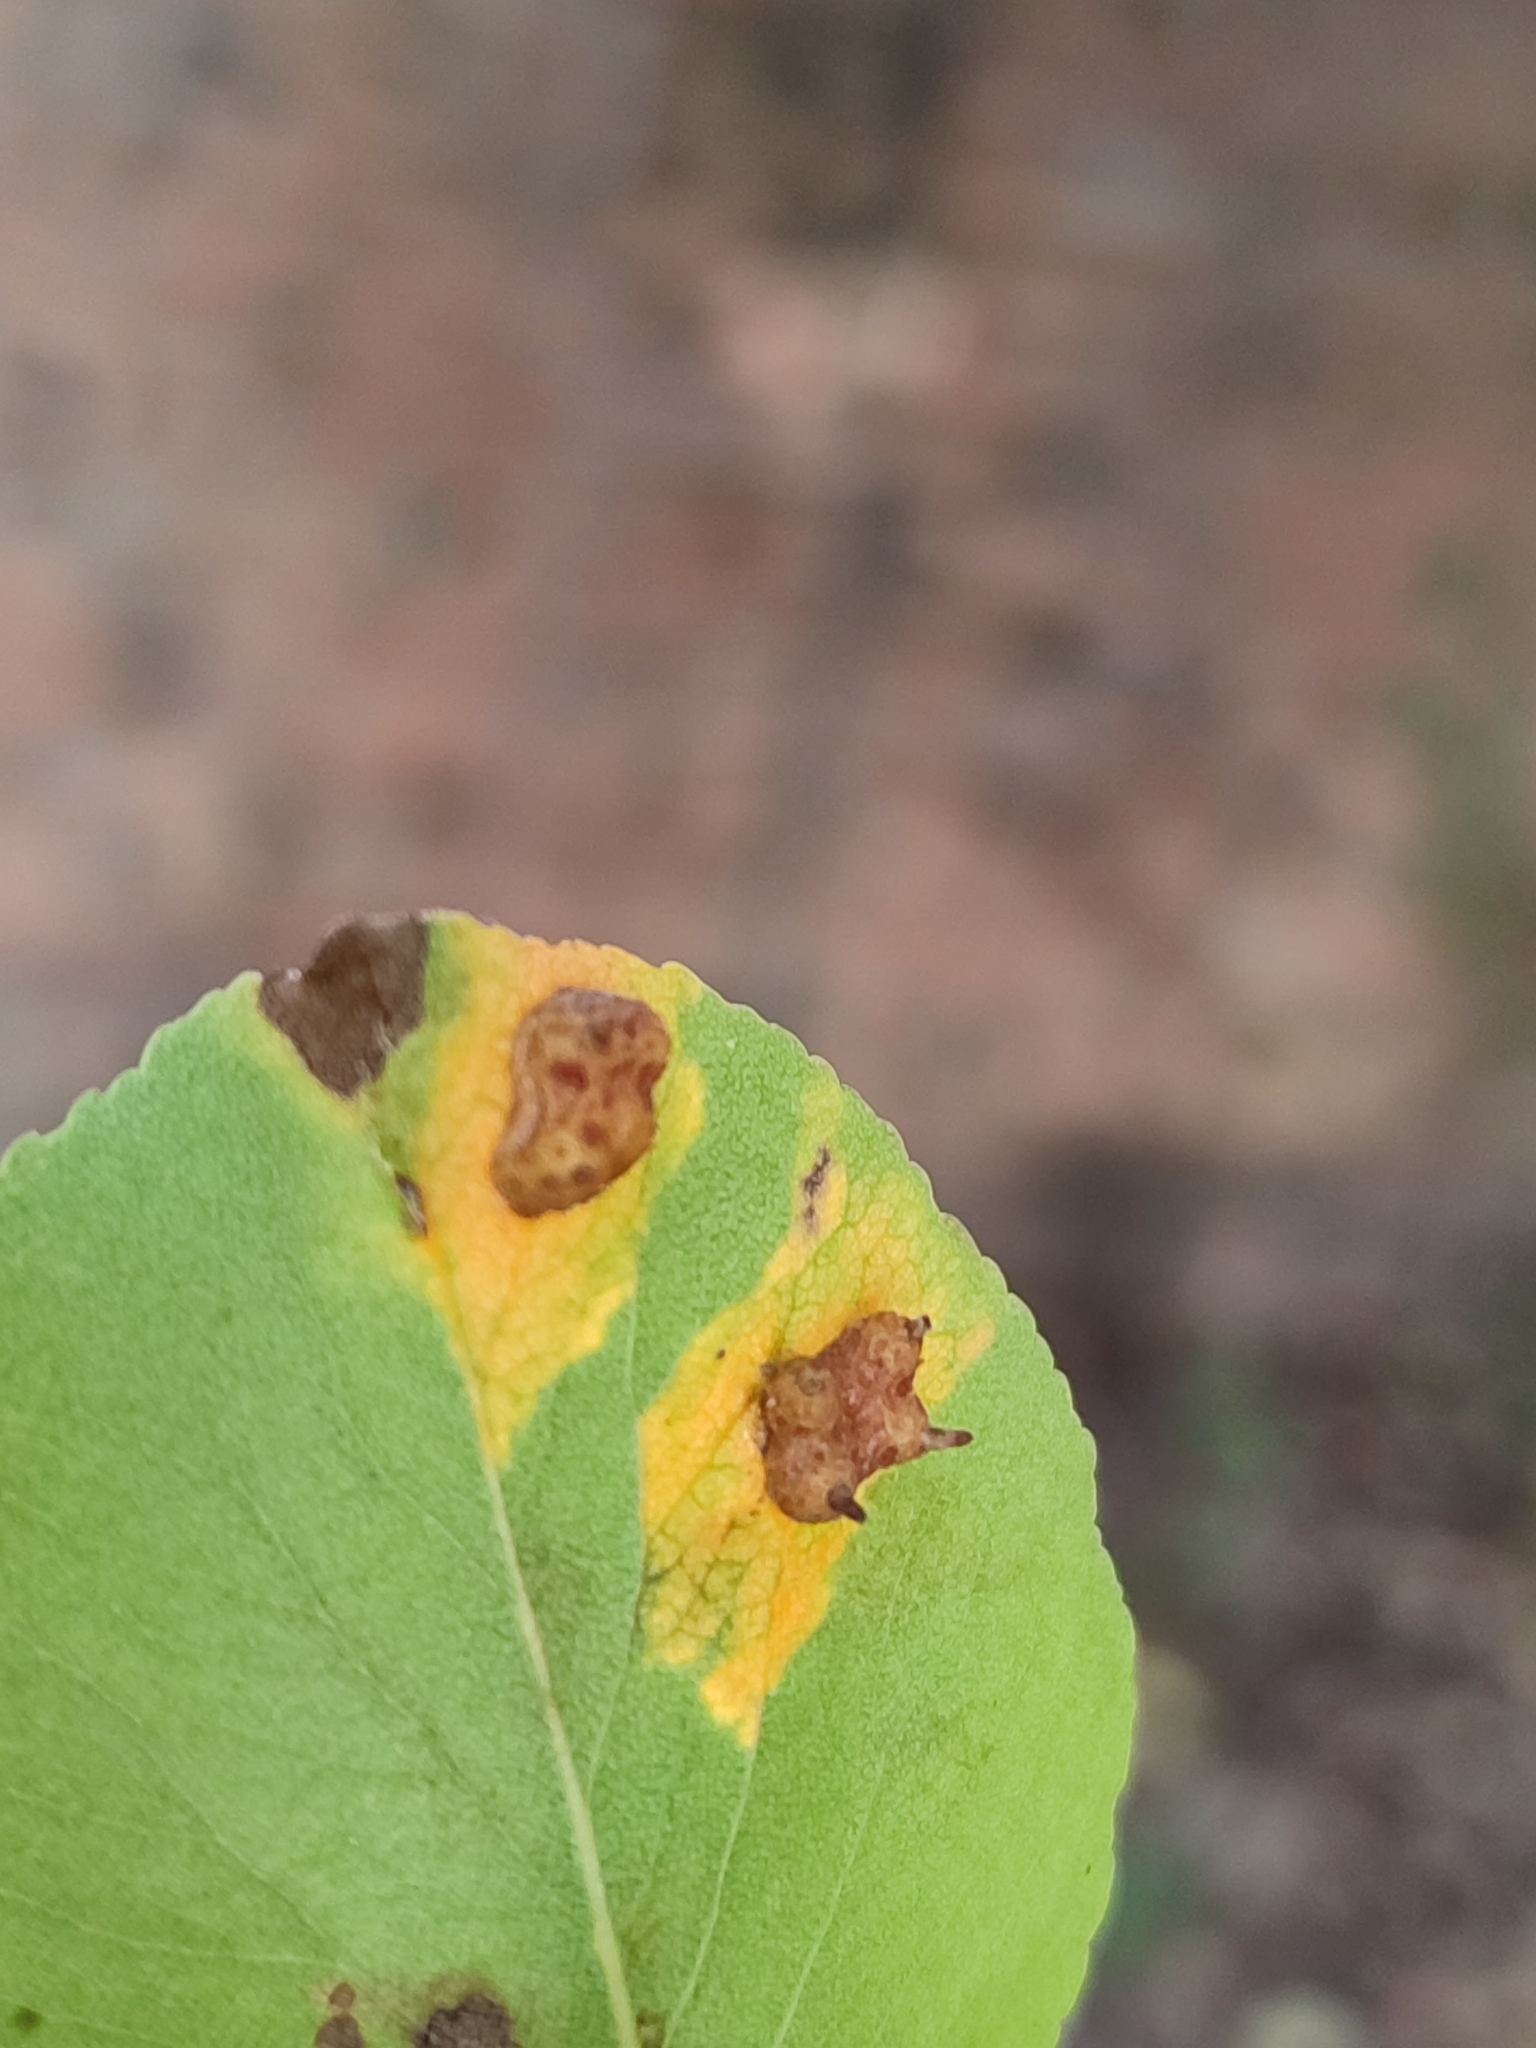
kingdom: Fungi
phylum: Basidiomycota
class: Pucciniomycetes
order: Pucciniales
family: Gymnosporangiaceae
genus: Gymnosporangium
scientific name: Gymnosporangium sabinae
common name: Pear trellis rust fungus
